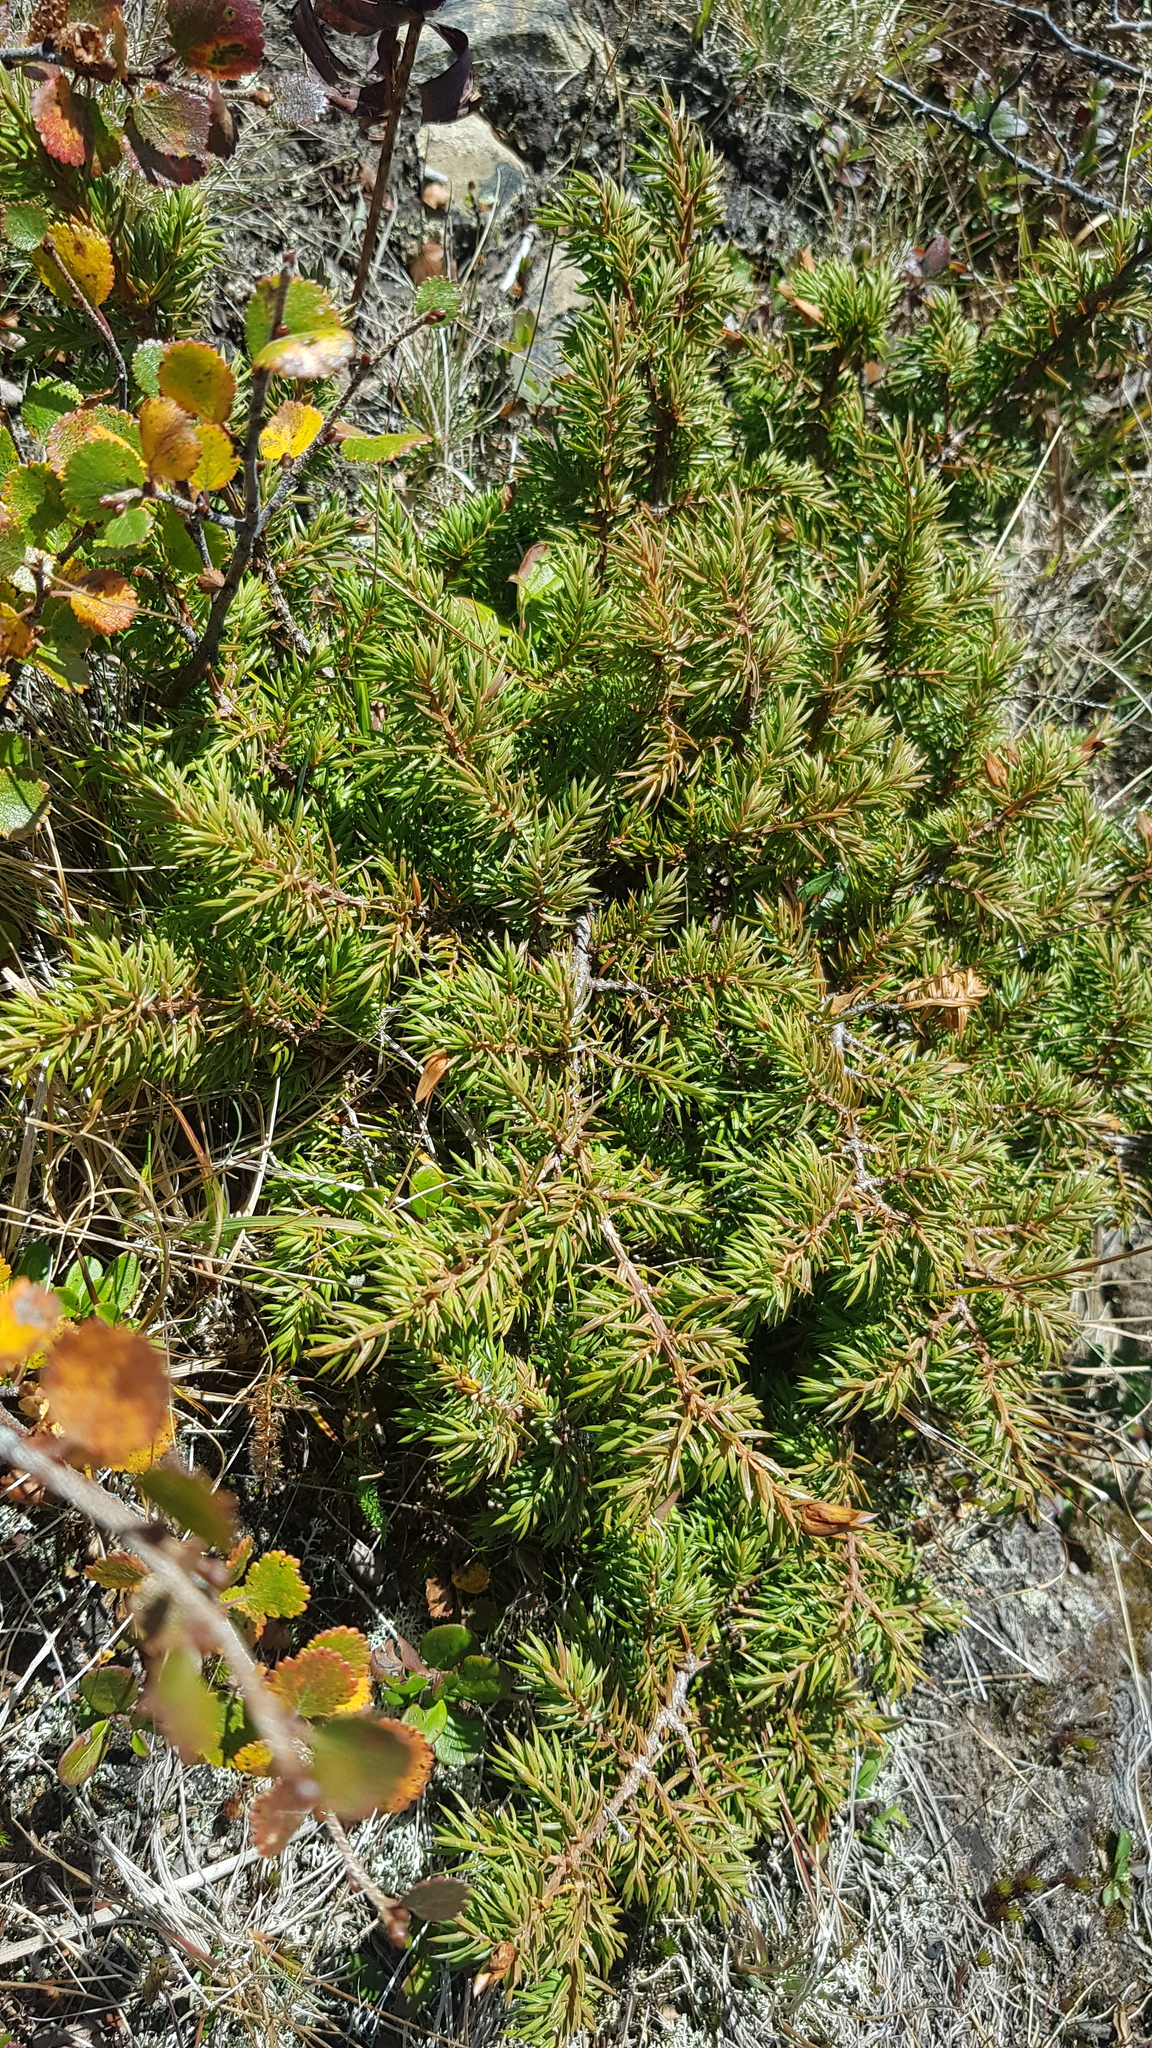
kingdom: Plantae
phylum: Tracheophyta
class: Pinopsida
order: Pinales
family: Cupressaceae
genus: Juniperus
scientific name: Juniperus communis
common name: Common juniper
